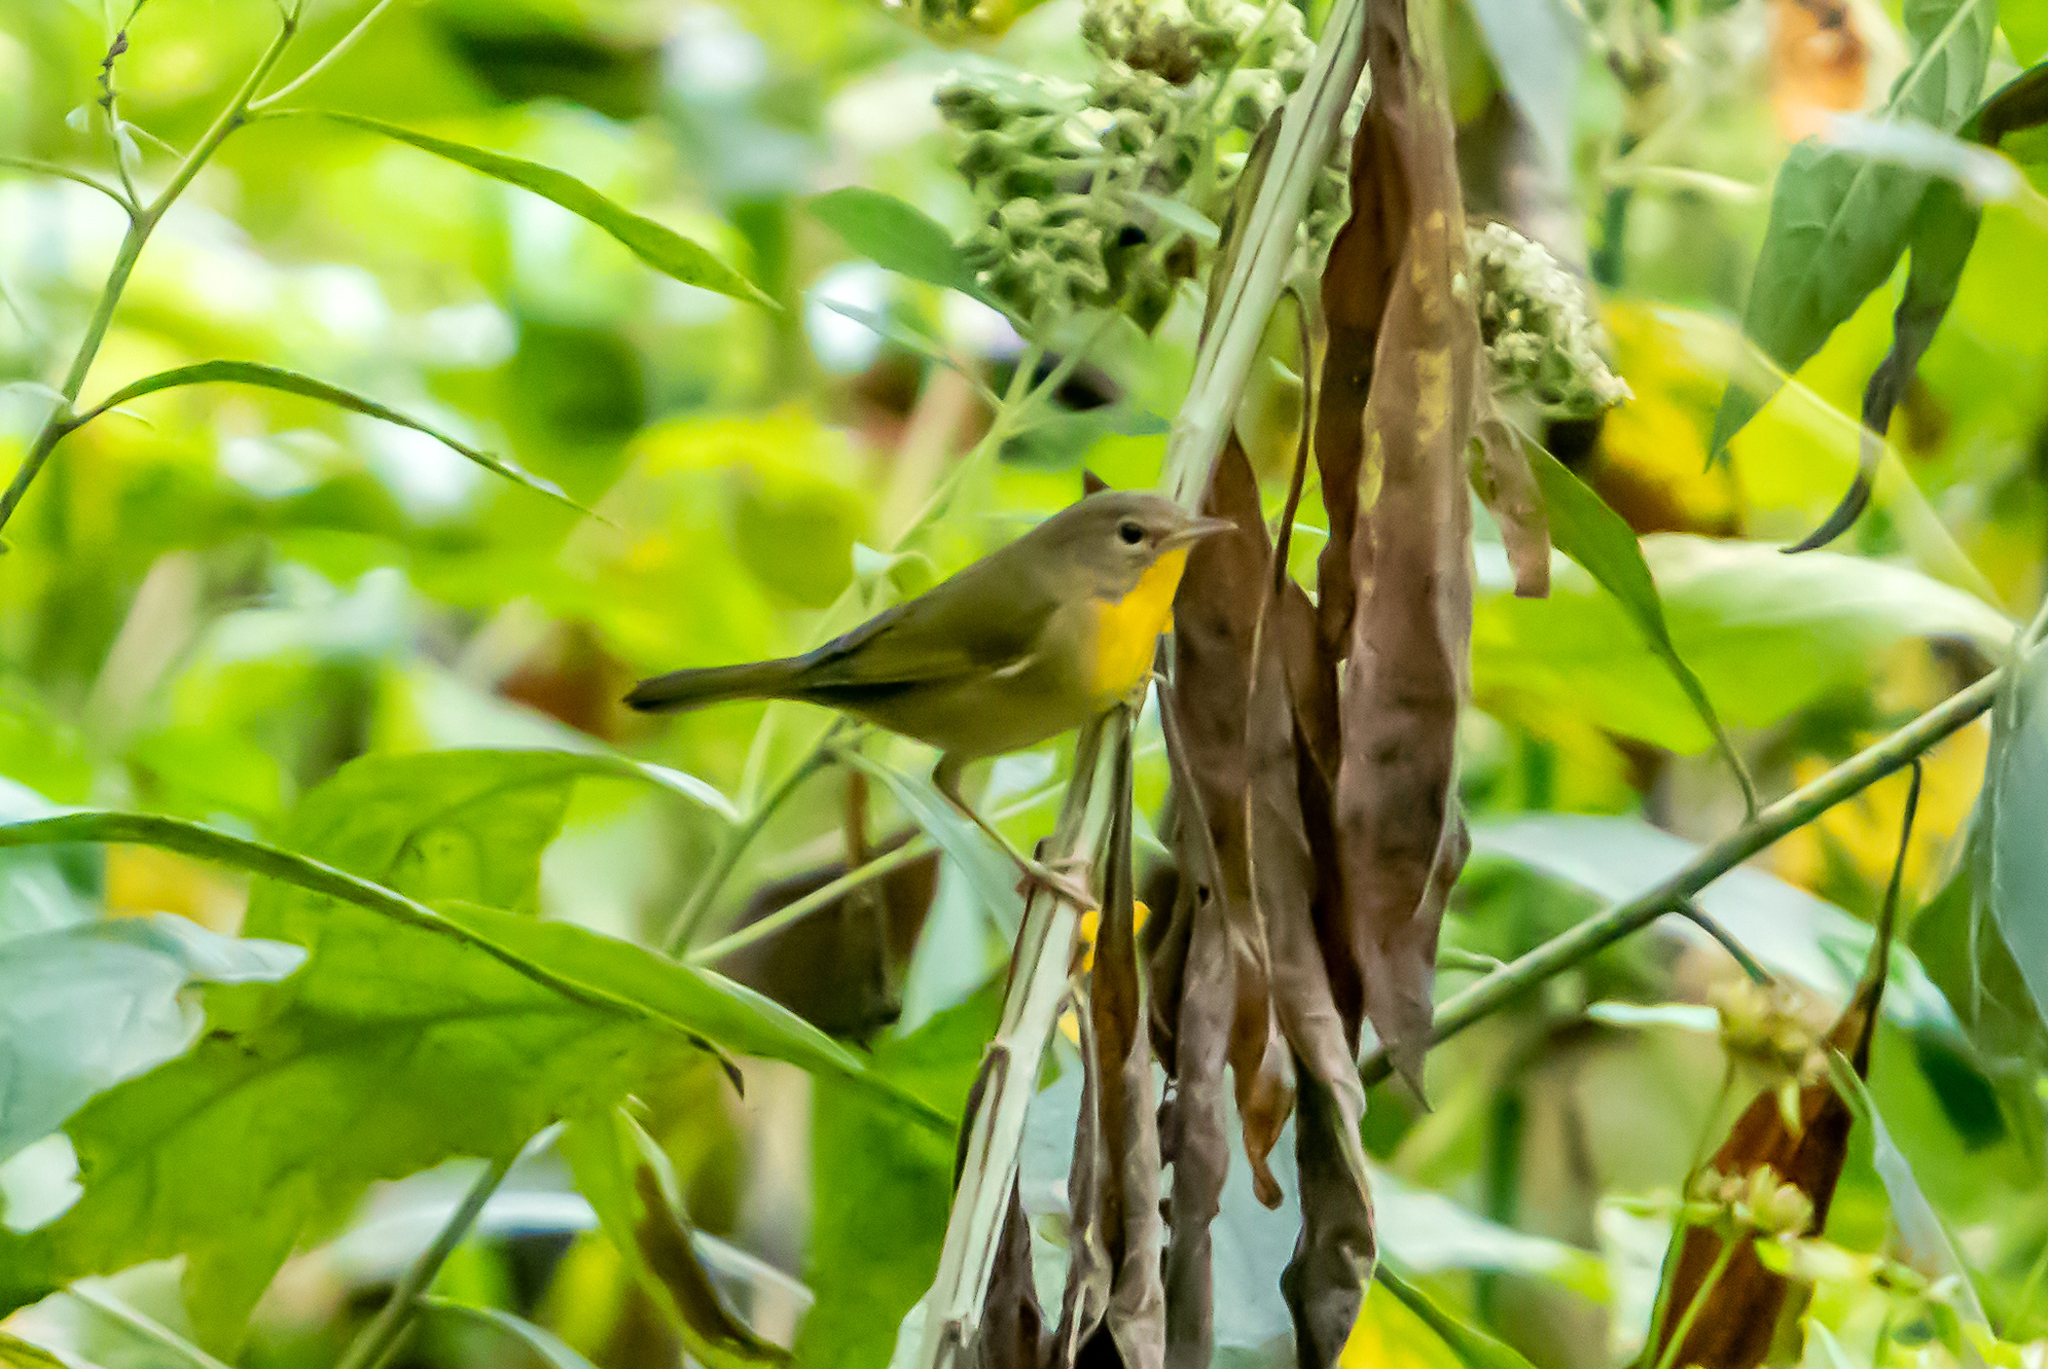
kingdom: Animalia
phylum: Chordata
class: Aves
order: Passeriformes
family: Parulidae
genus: Geothlypis
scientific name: Geothlypis trichas
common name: Common yellowthroat
